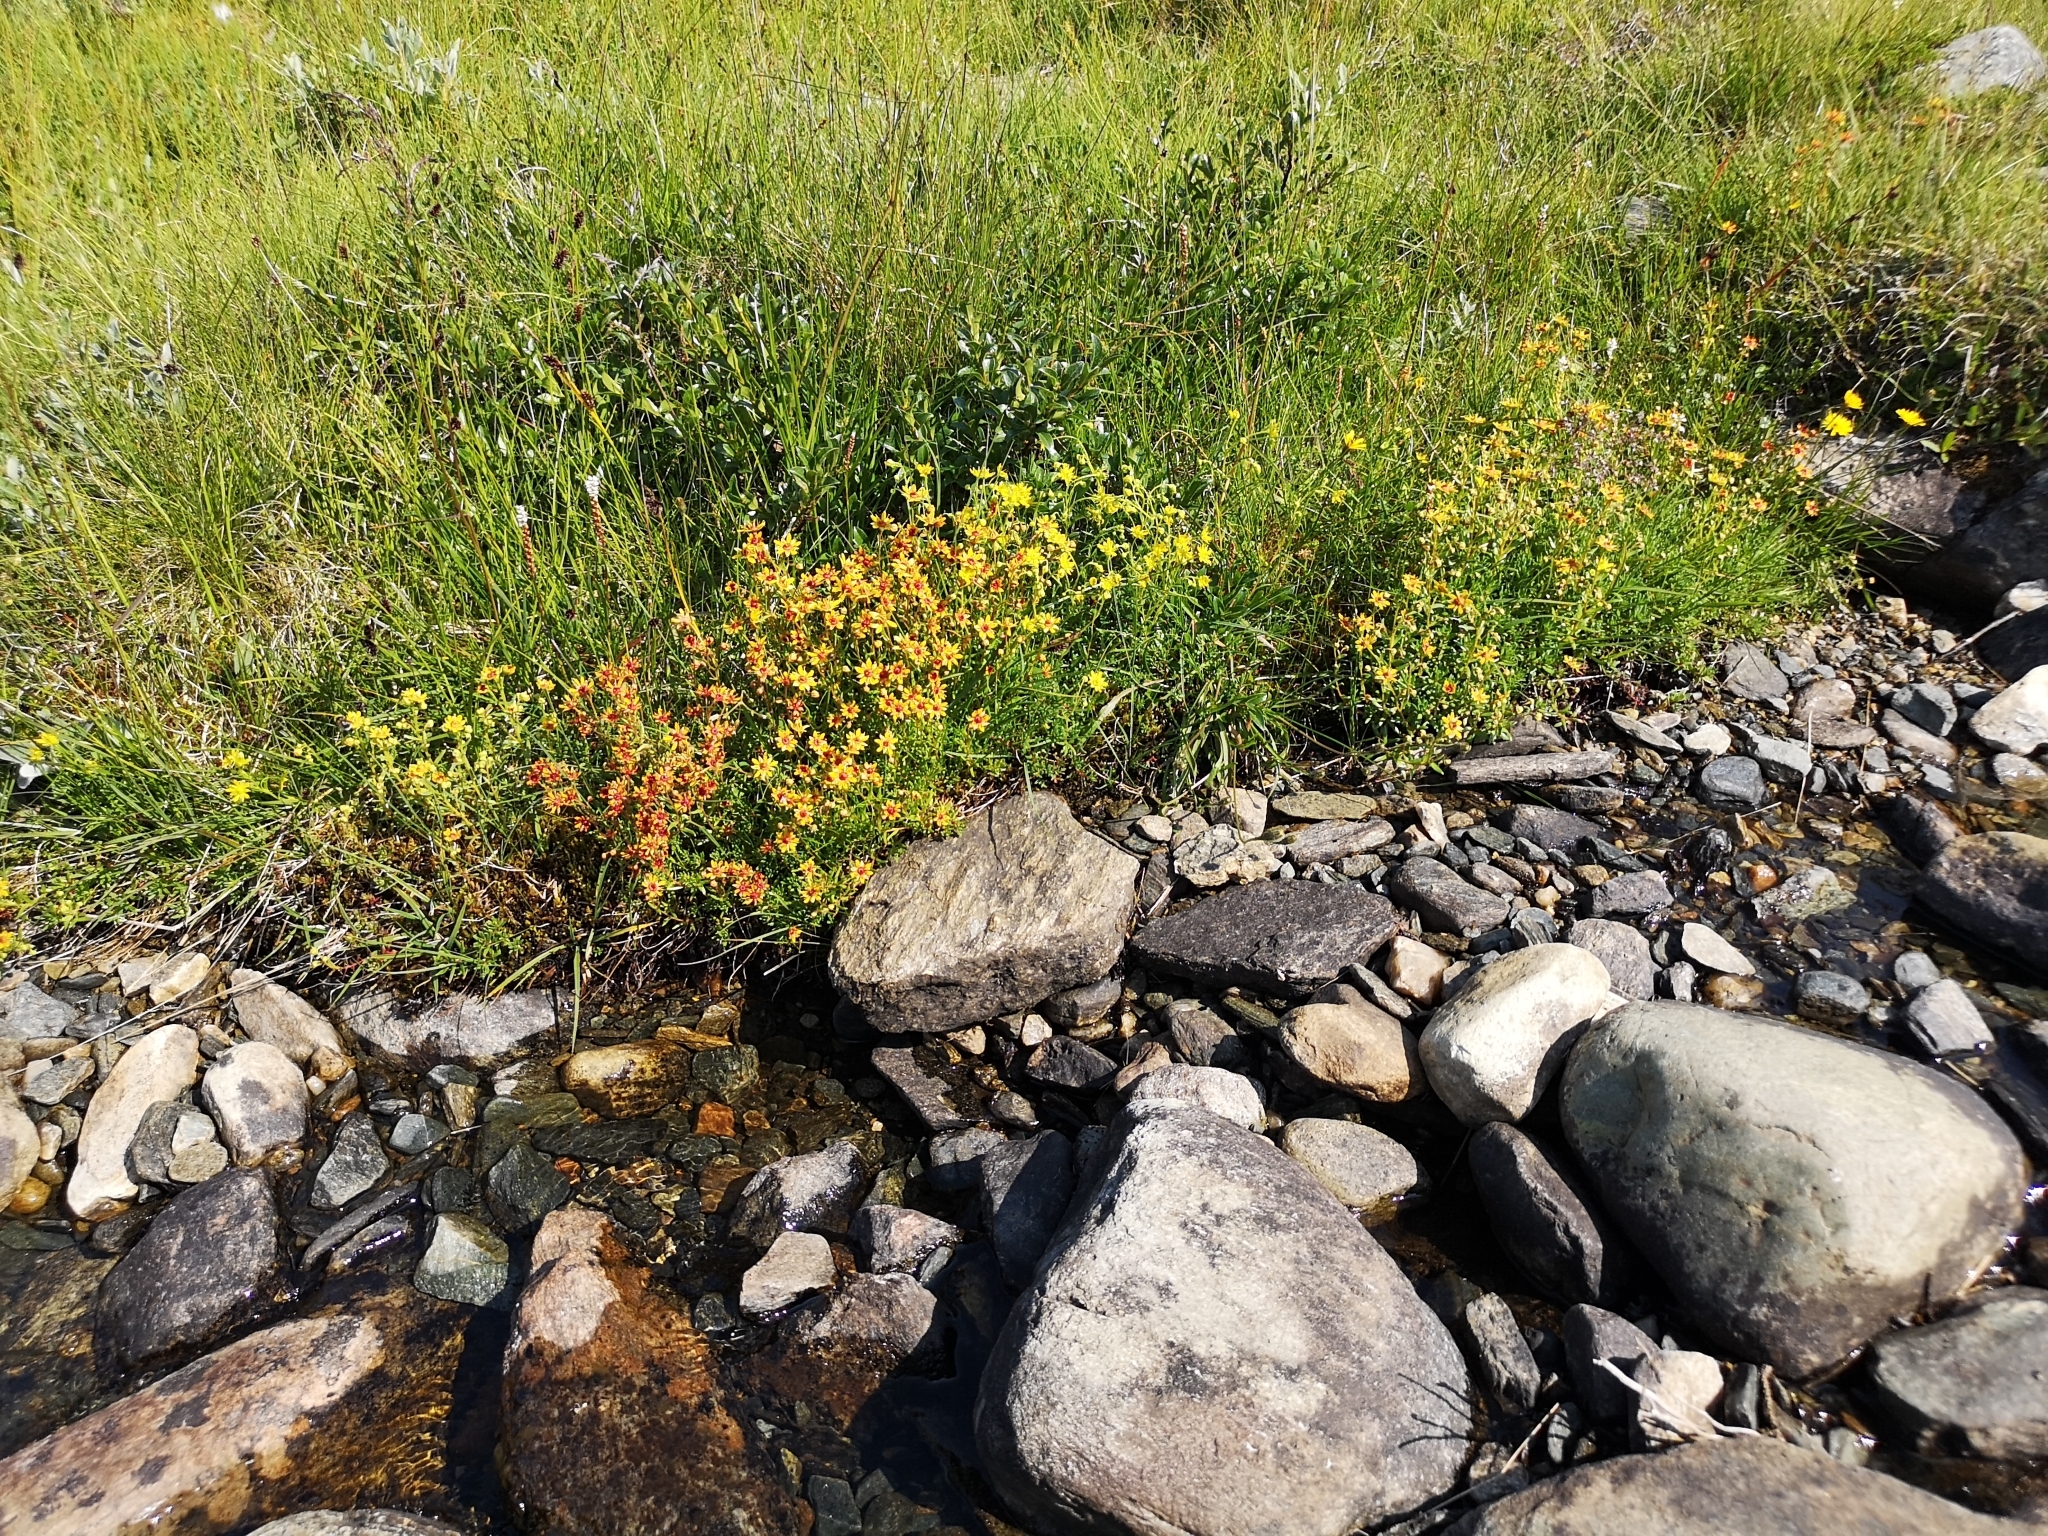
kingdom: Plantae
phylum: Tracheophyta
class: Magnoliopsida
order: Saxifragales
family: Saxifragaceae
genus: Saxifraga
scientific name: Saxifraga aizoides
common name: Yellow mountain saxifrage
